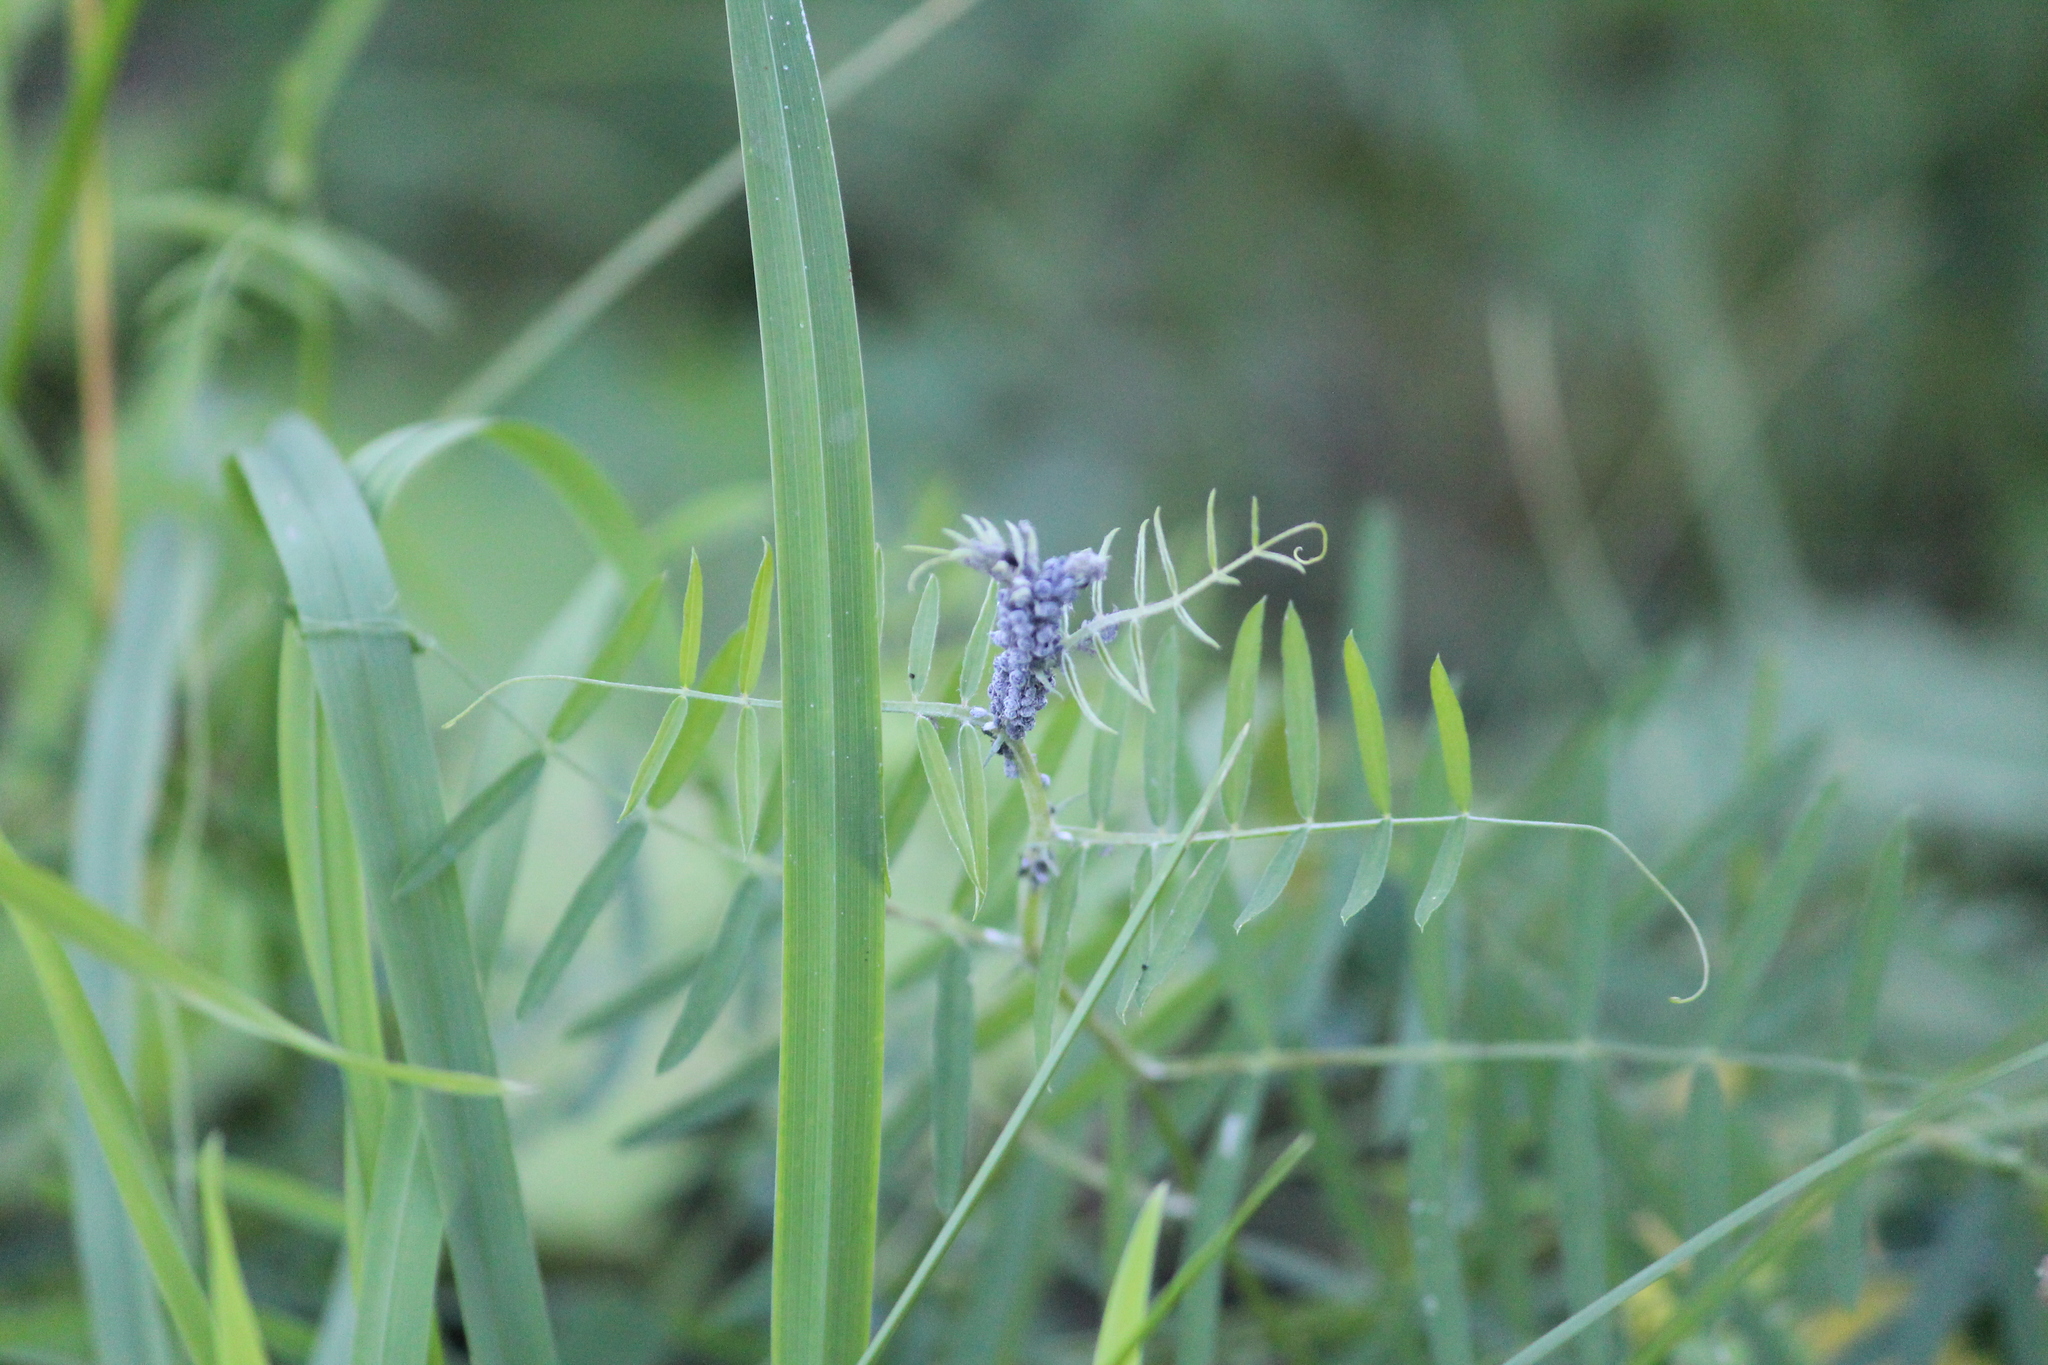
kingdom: Plantae
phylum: Tracheophyta
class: Magnoliopsida
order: Fabales
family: Fabaceae
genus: Vicia
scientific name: Vicia cracca
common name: Bird vetch
